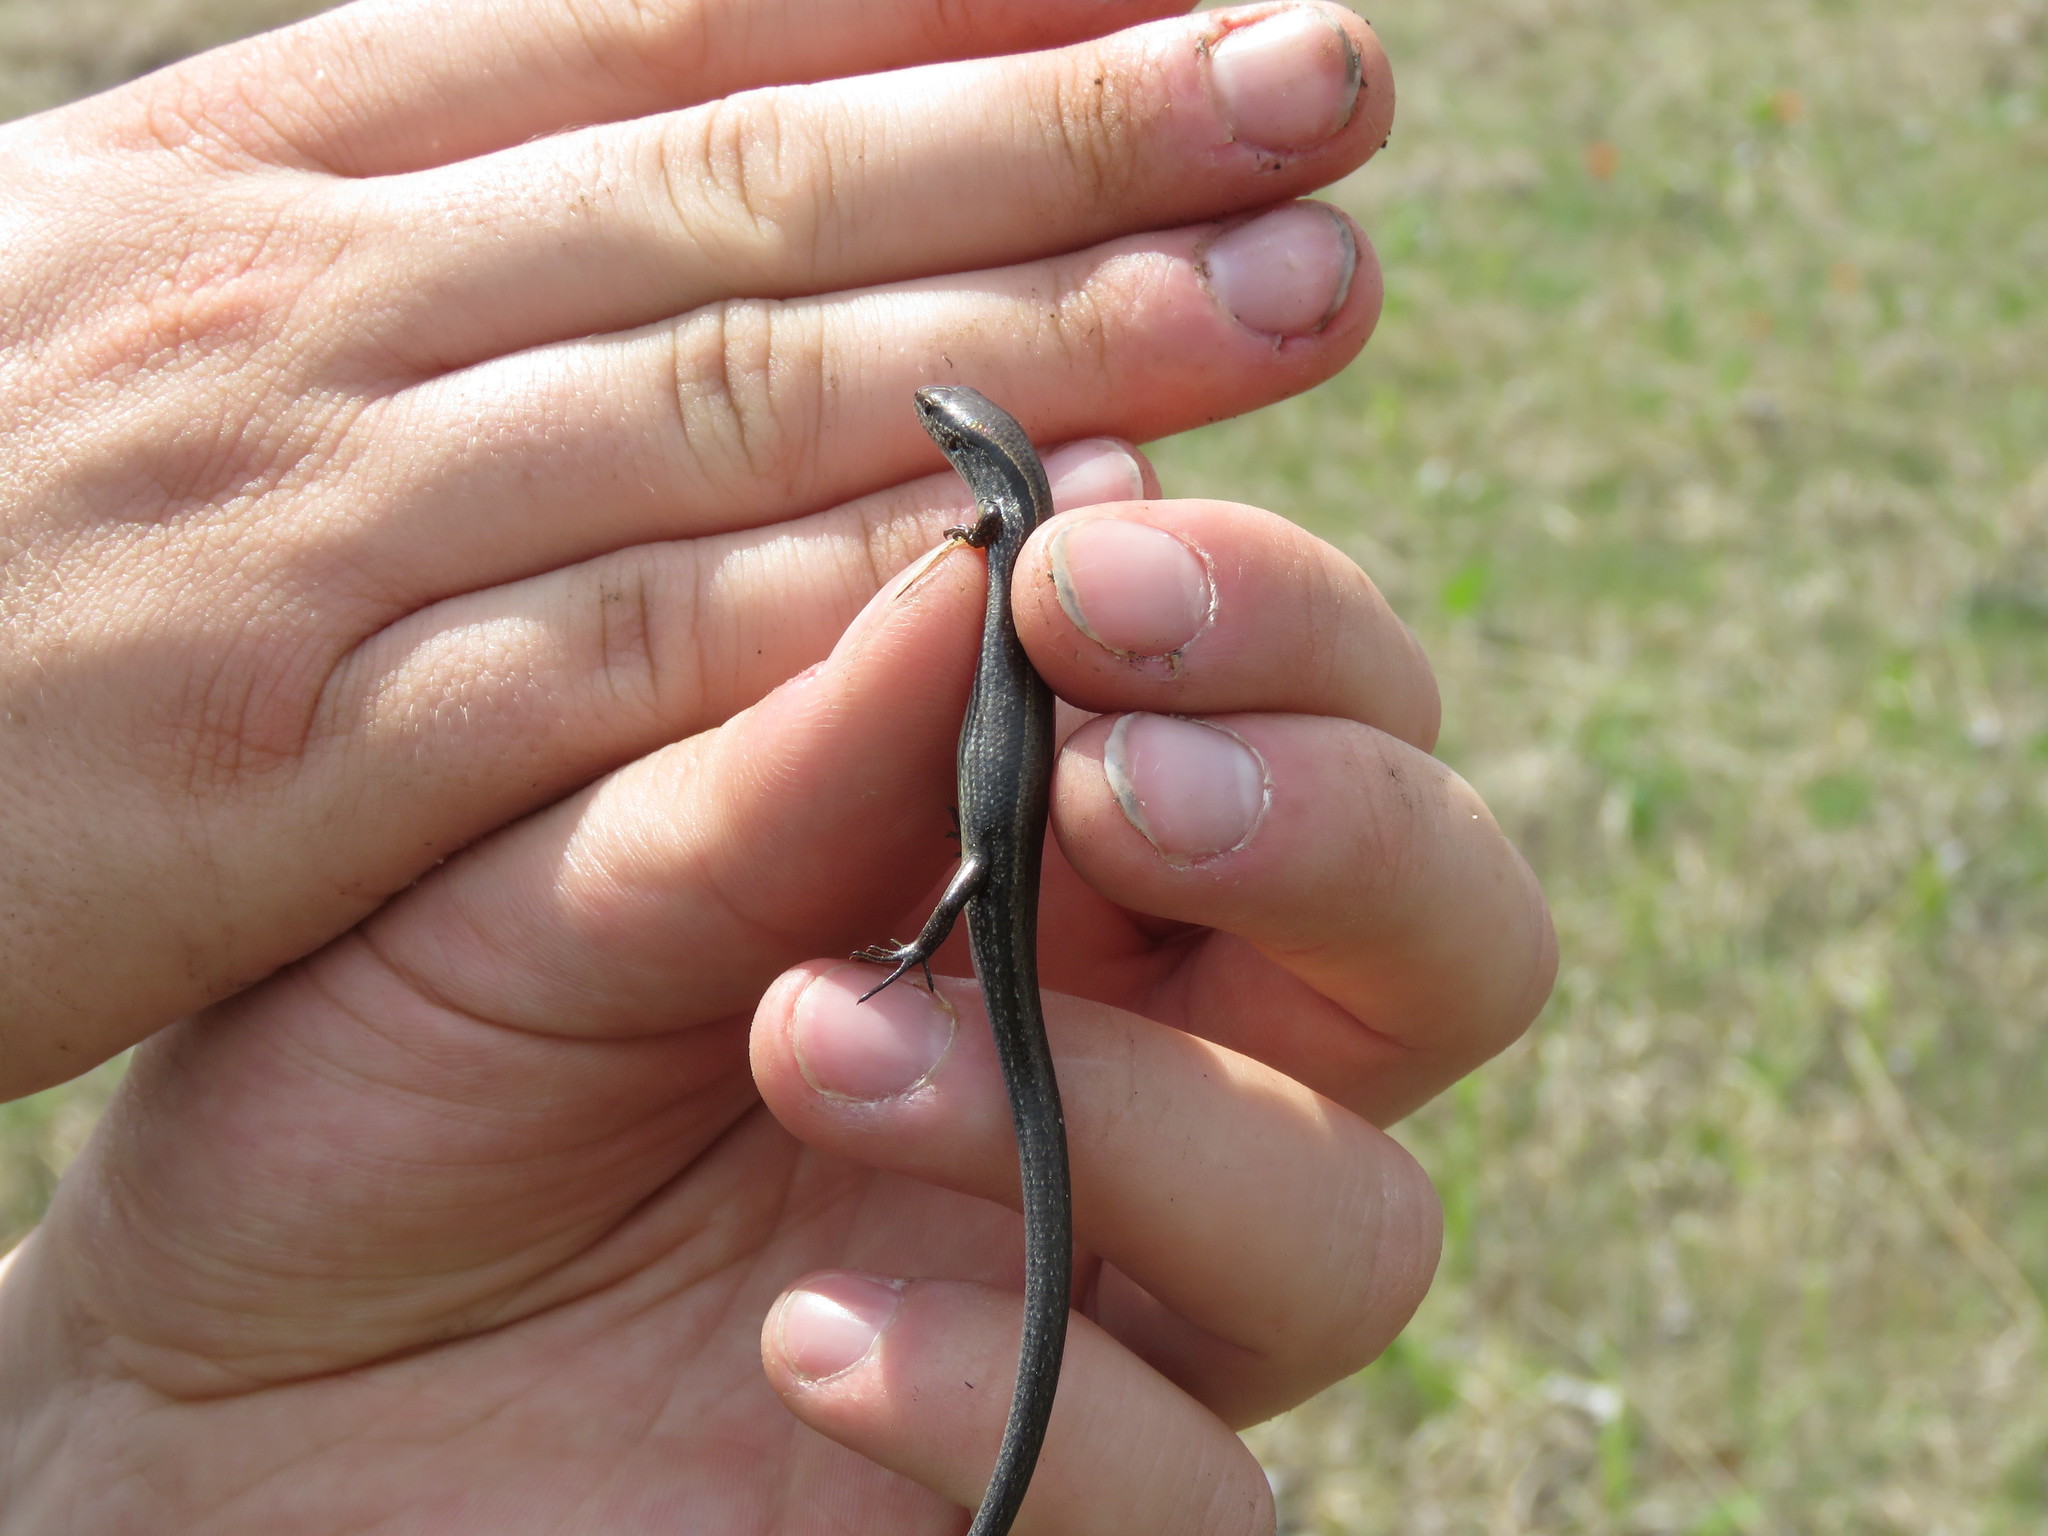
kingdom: Animalia
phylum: Chordata
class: Squamata
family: Scincidae
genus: Scincella
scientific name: Scincella lateralis
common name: Ground skink
